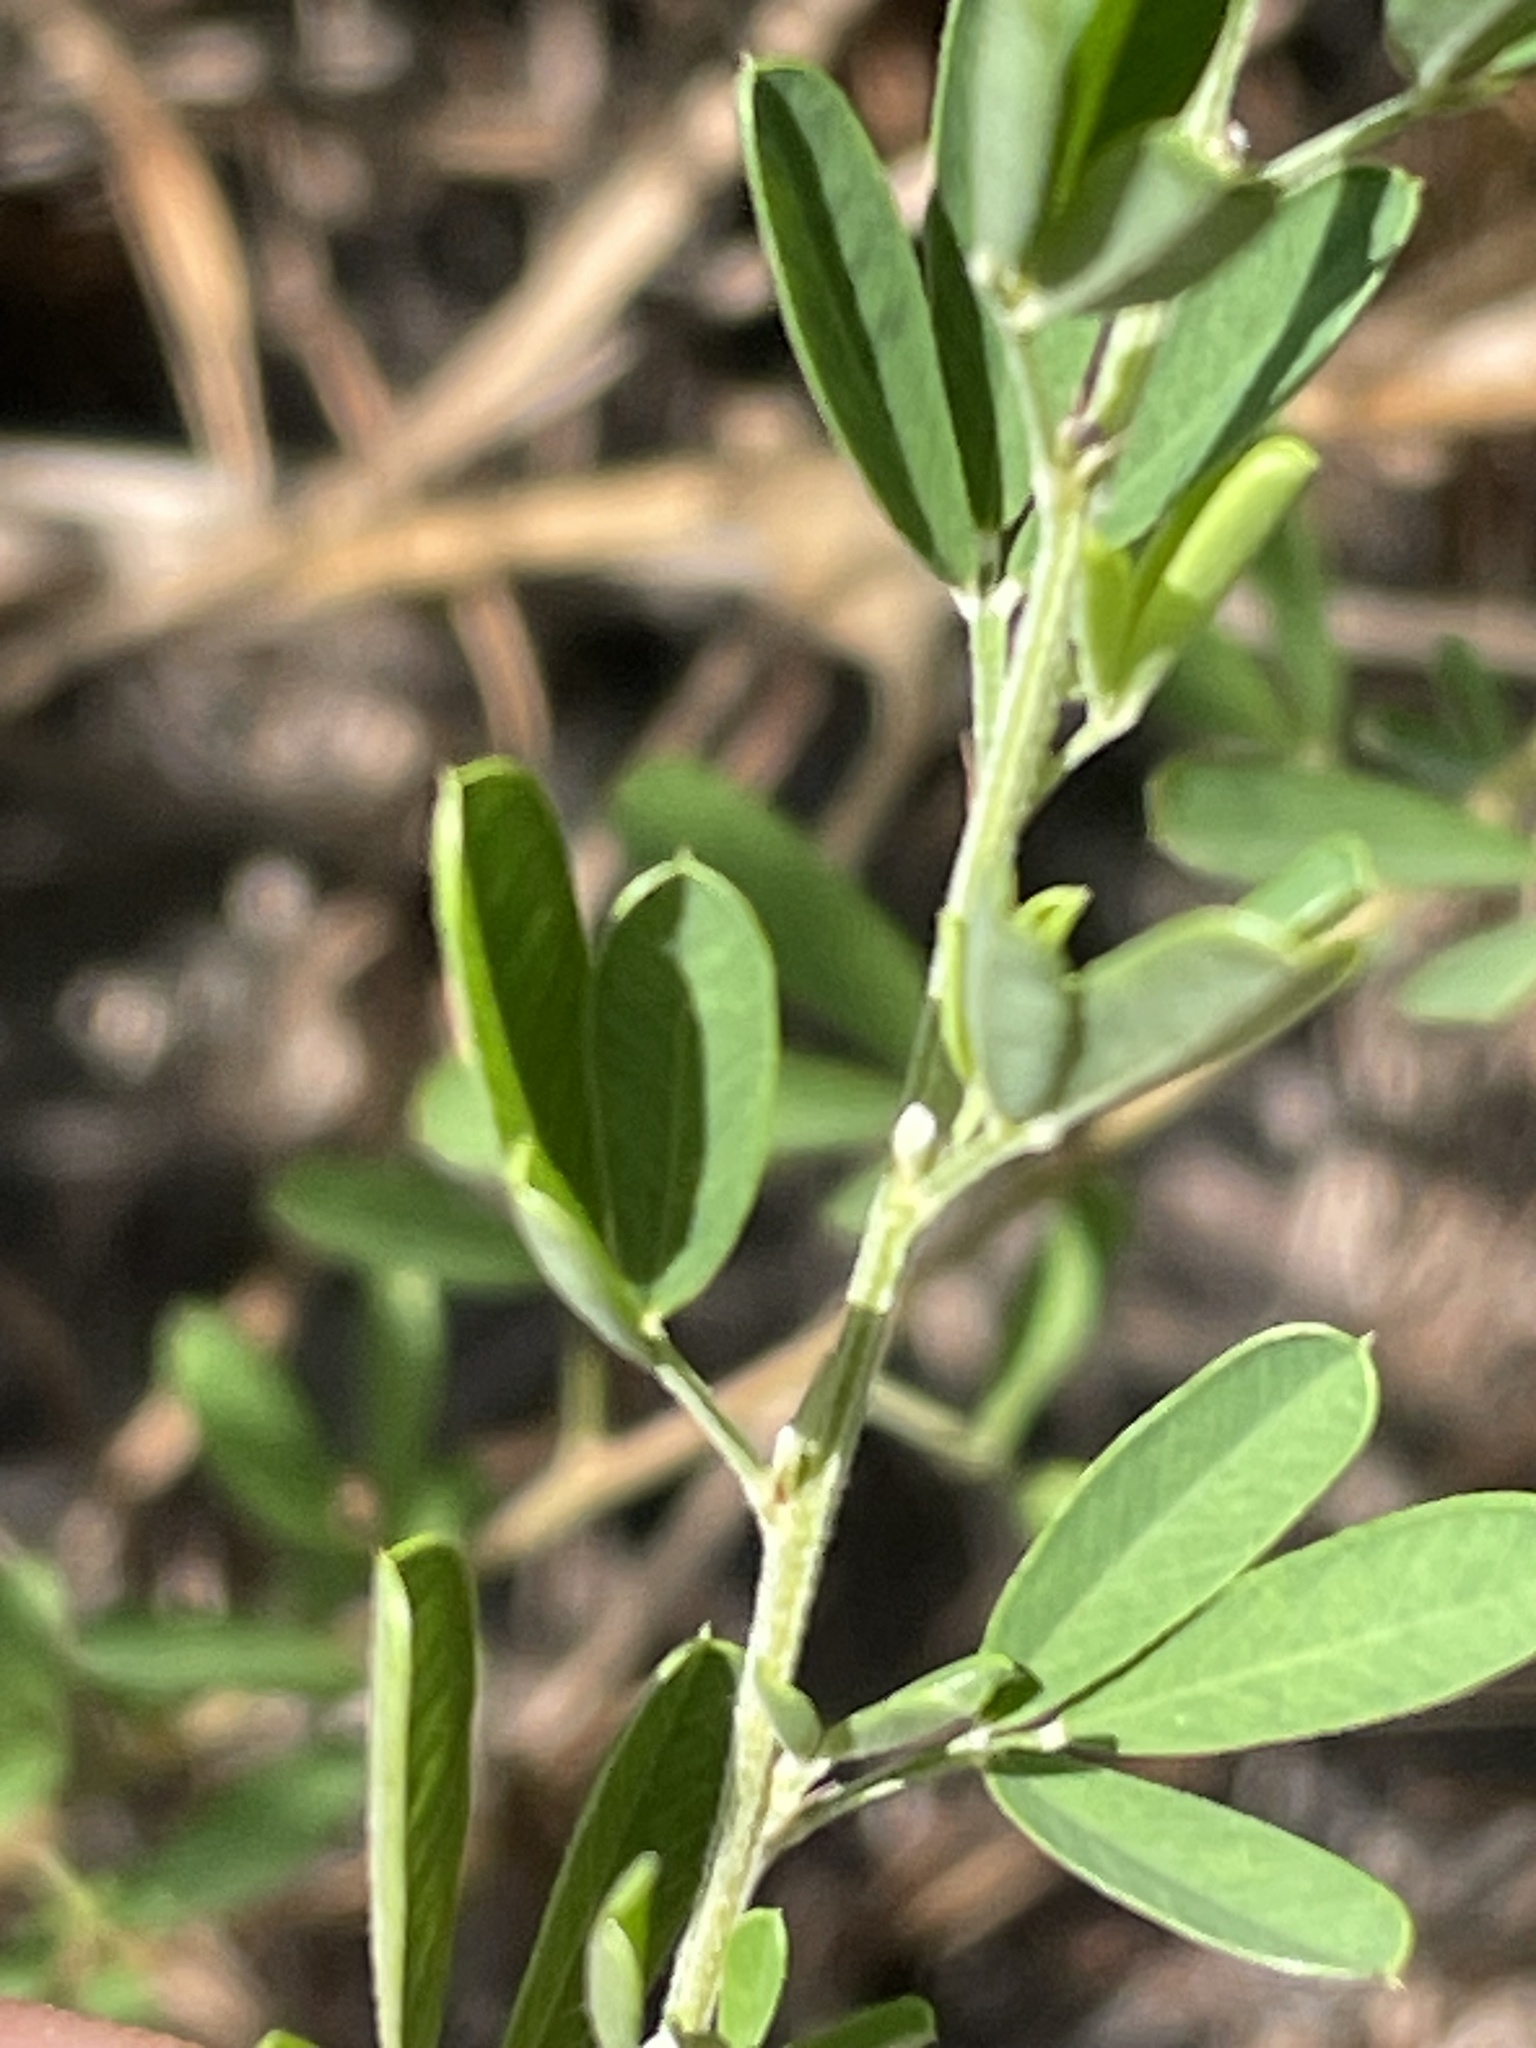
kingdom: Plantae
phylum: Tracheophyta
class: Magnoliopsida
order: Fabales
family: Fabaceae
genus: Lespedeza
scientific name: Lespedeza cuneata
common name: Chinese bush-clover
